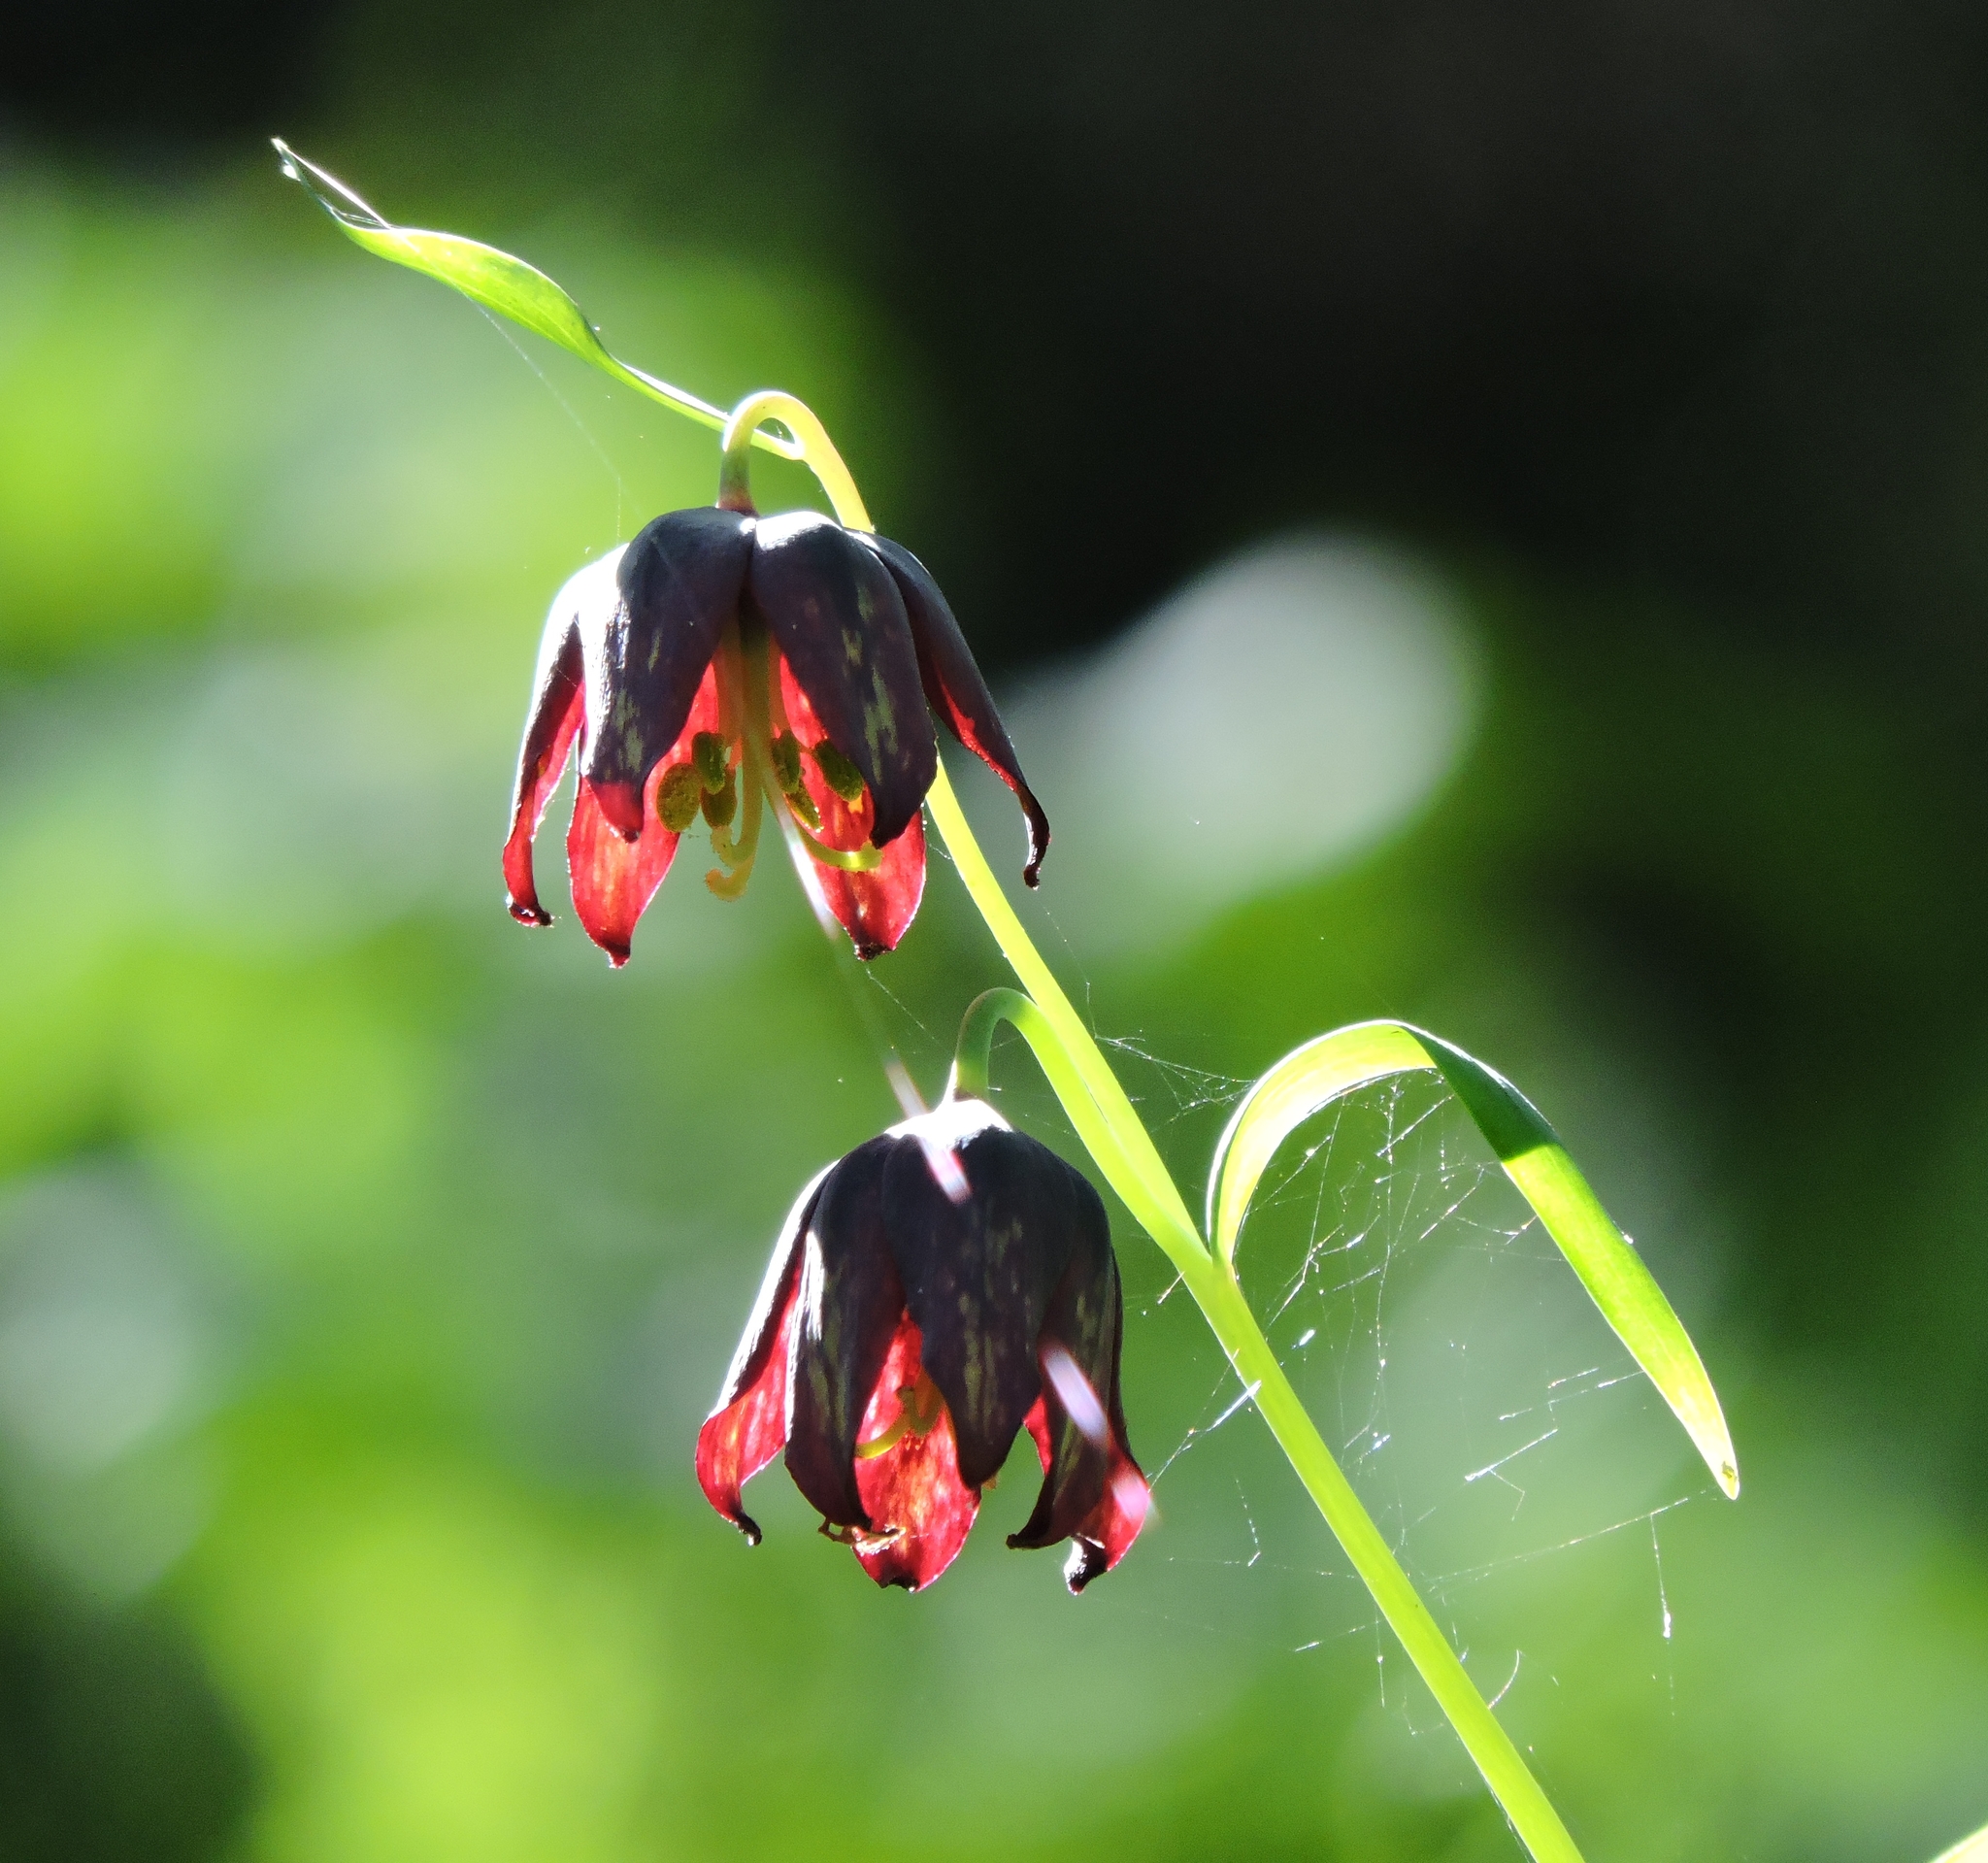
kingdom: Plantae
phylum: Tracheophyta
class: Liliopsida
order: Liliales
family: Liliaceae
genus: Fritillaria
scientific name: Fritillaria affinis
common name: Ojai fritillary
